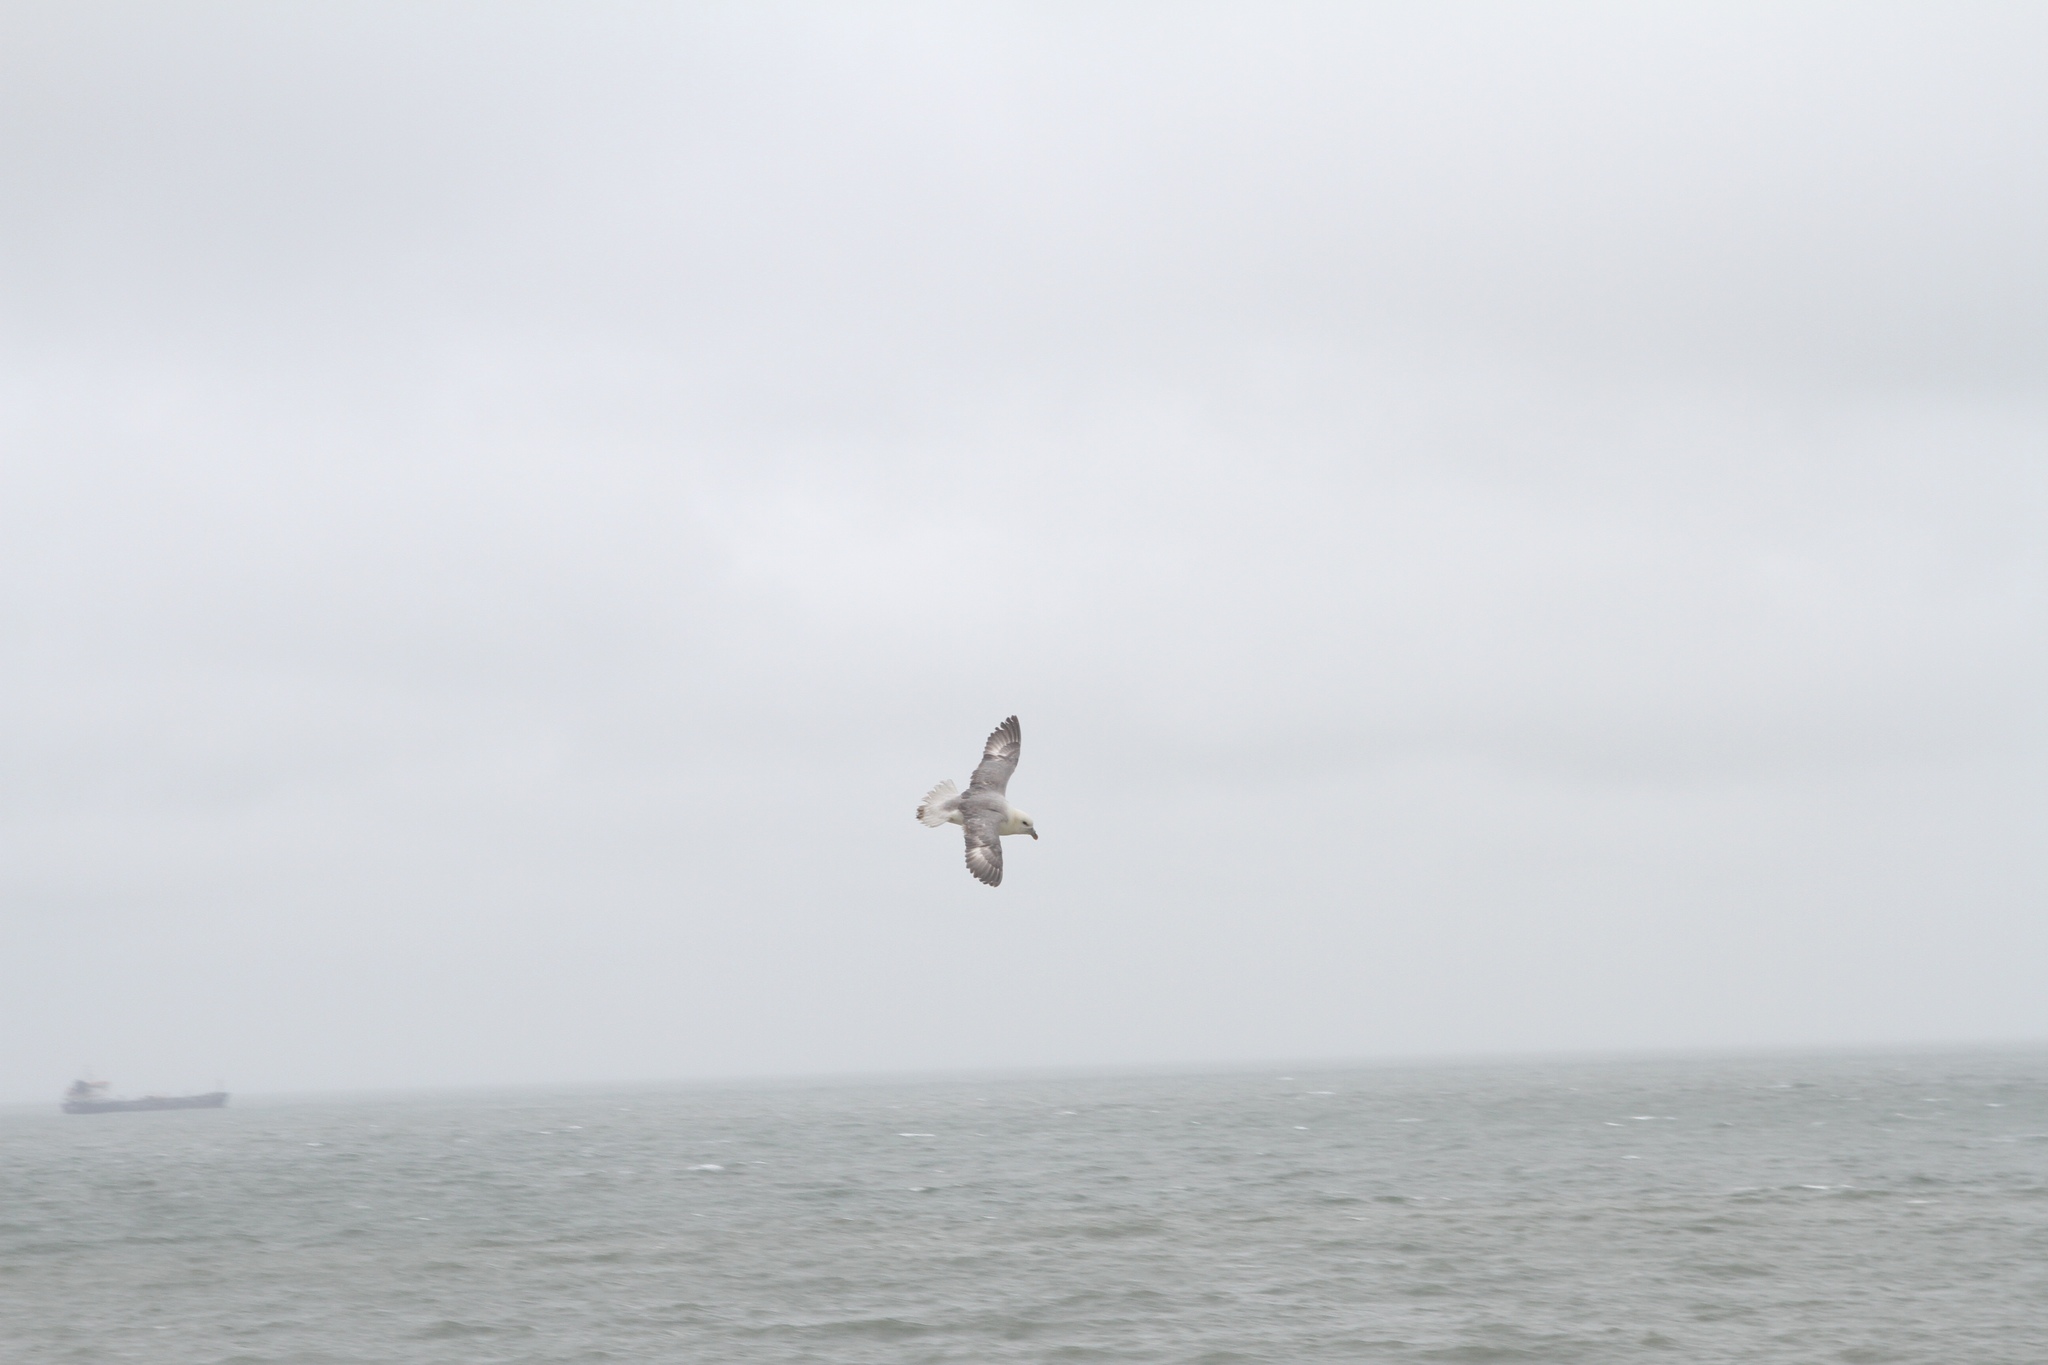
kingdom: Animalia
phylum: Chordata
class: Aves
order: Procellariiformes
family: Procellariidae
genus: Fulmarus
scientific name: Fulmarus glacialis
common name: Northern fulmar
